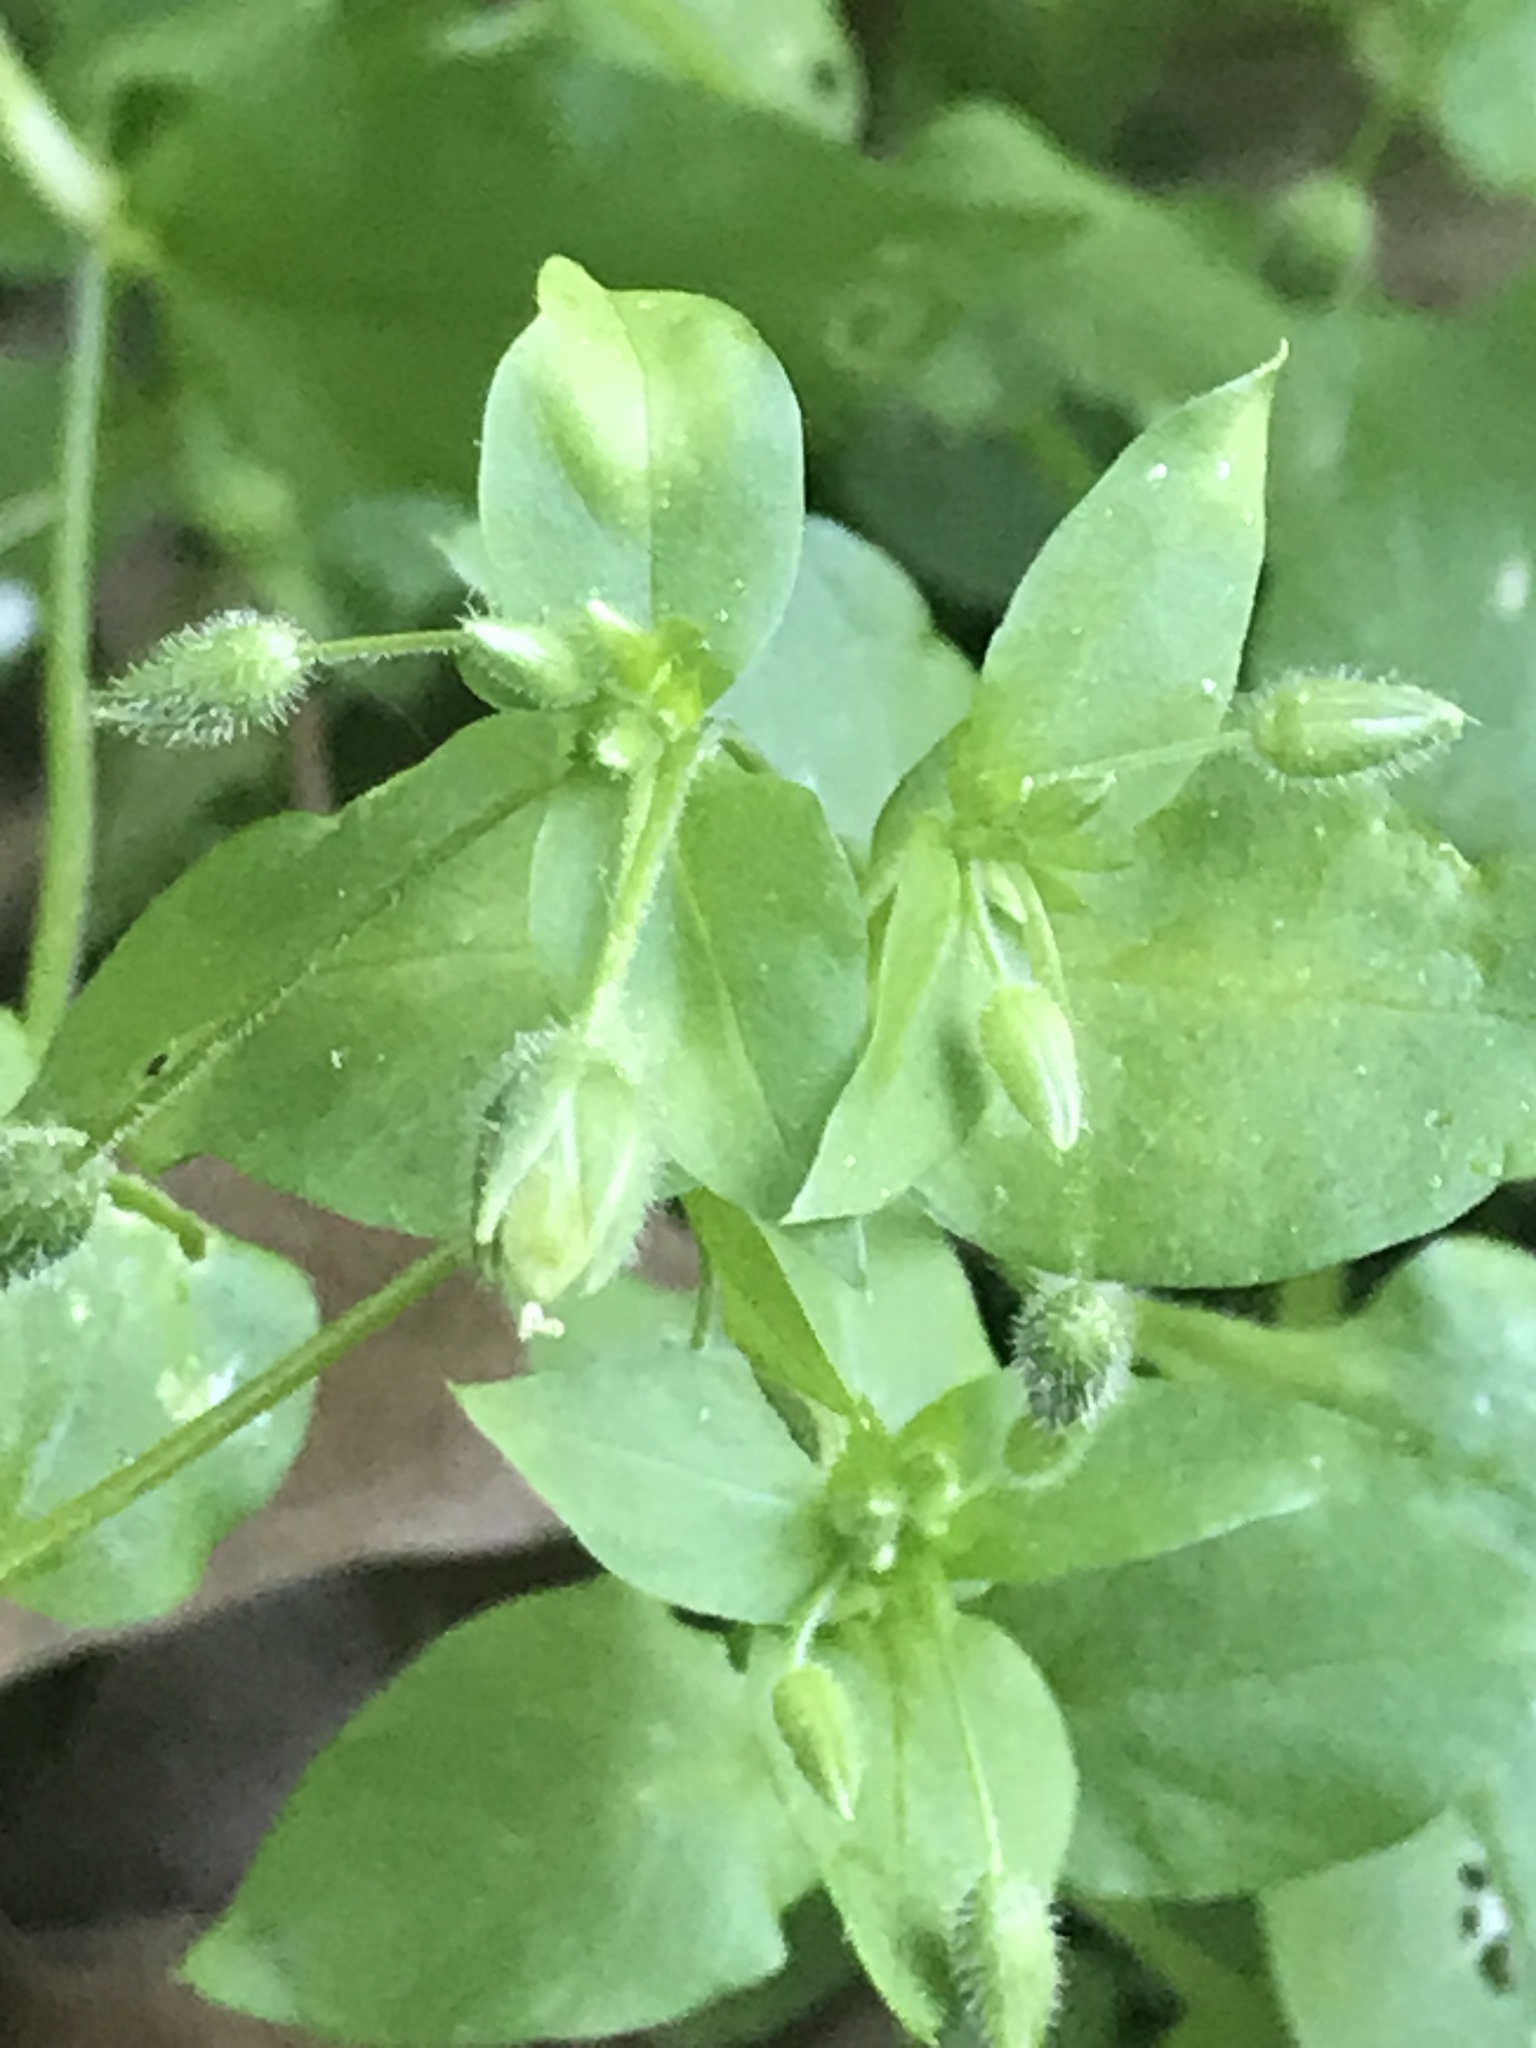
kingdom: Plantae
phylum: Tracheophyta
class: Magnoliopsida
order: Caryophyllales
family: Caryophyllaceae
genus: Stellaria
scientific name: Stellaria media
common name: Common chickweed
